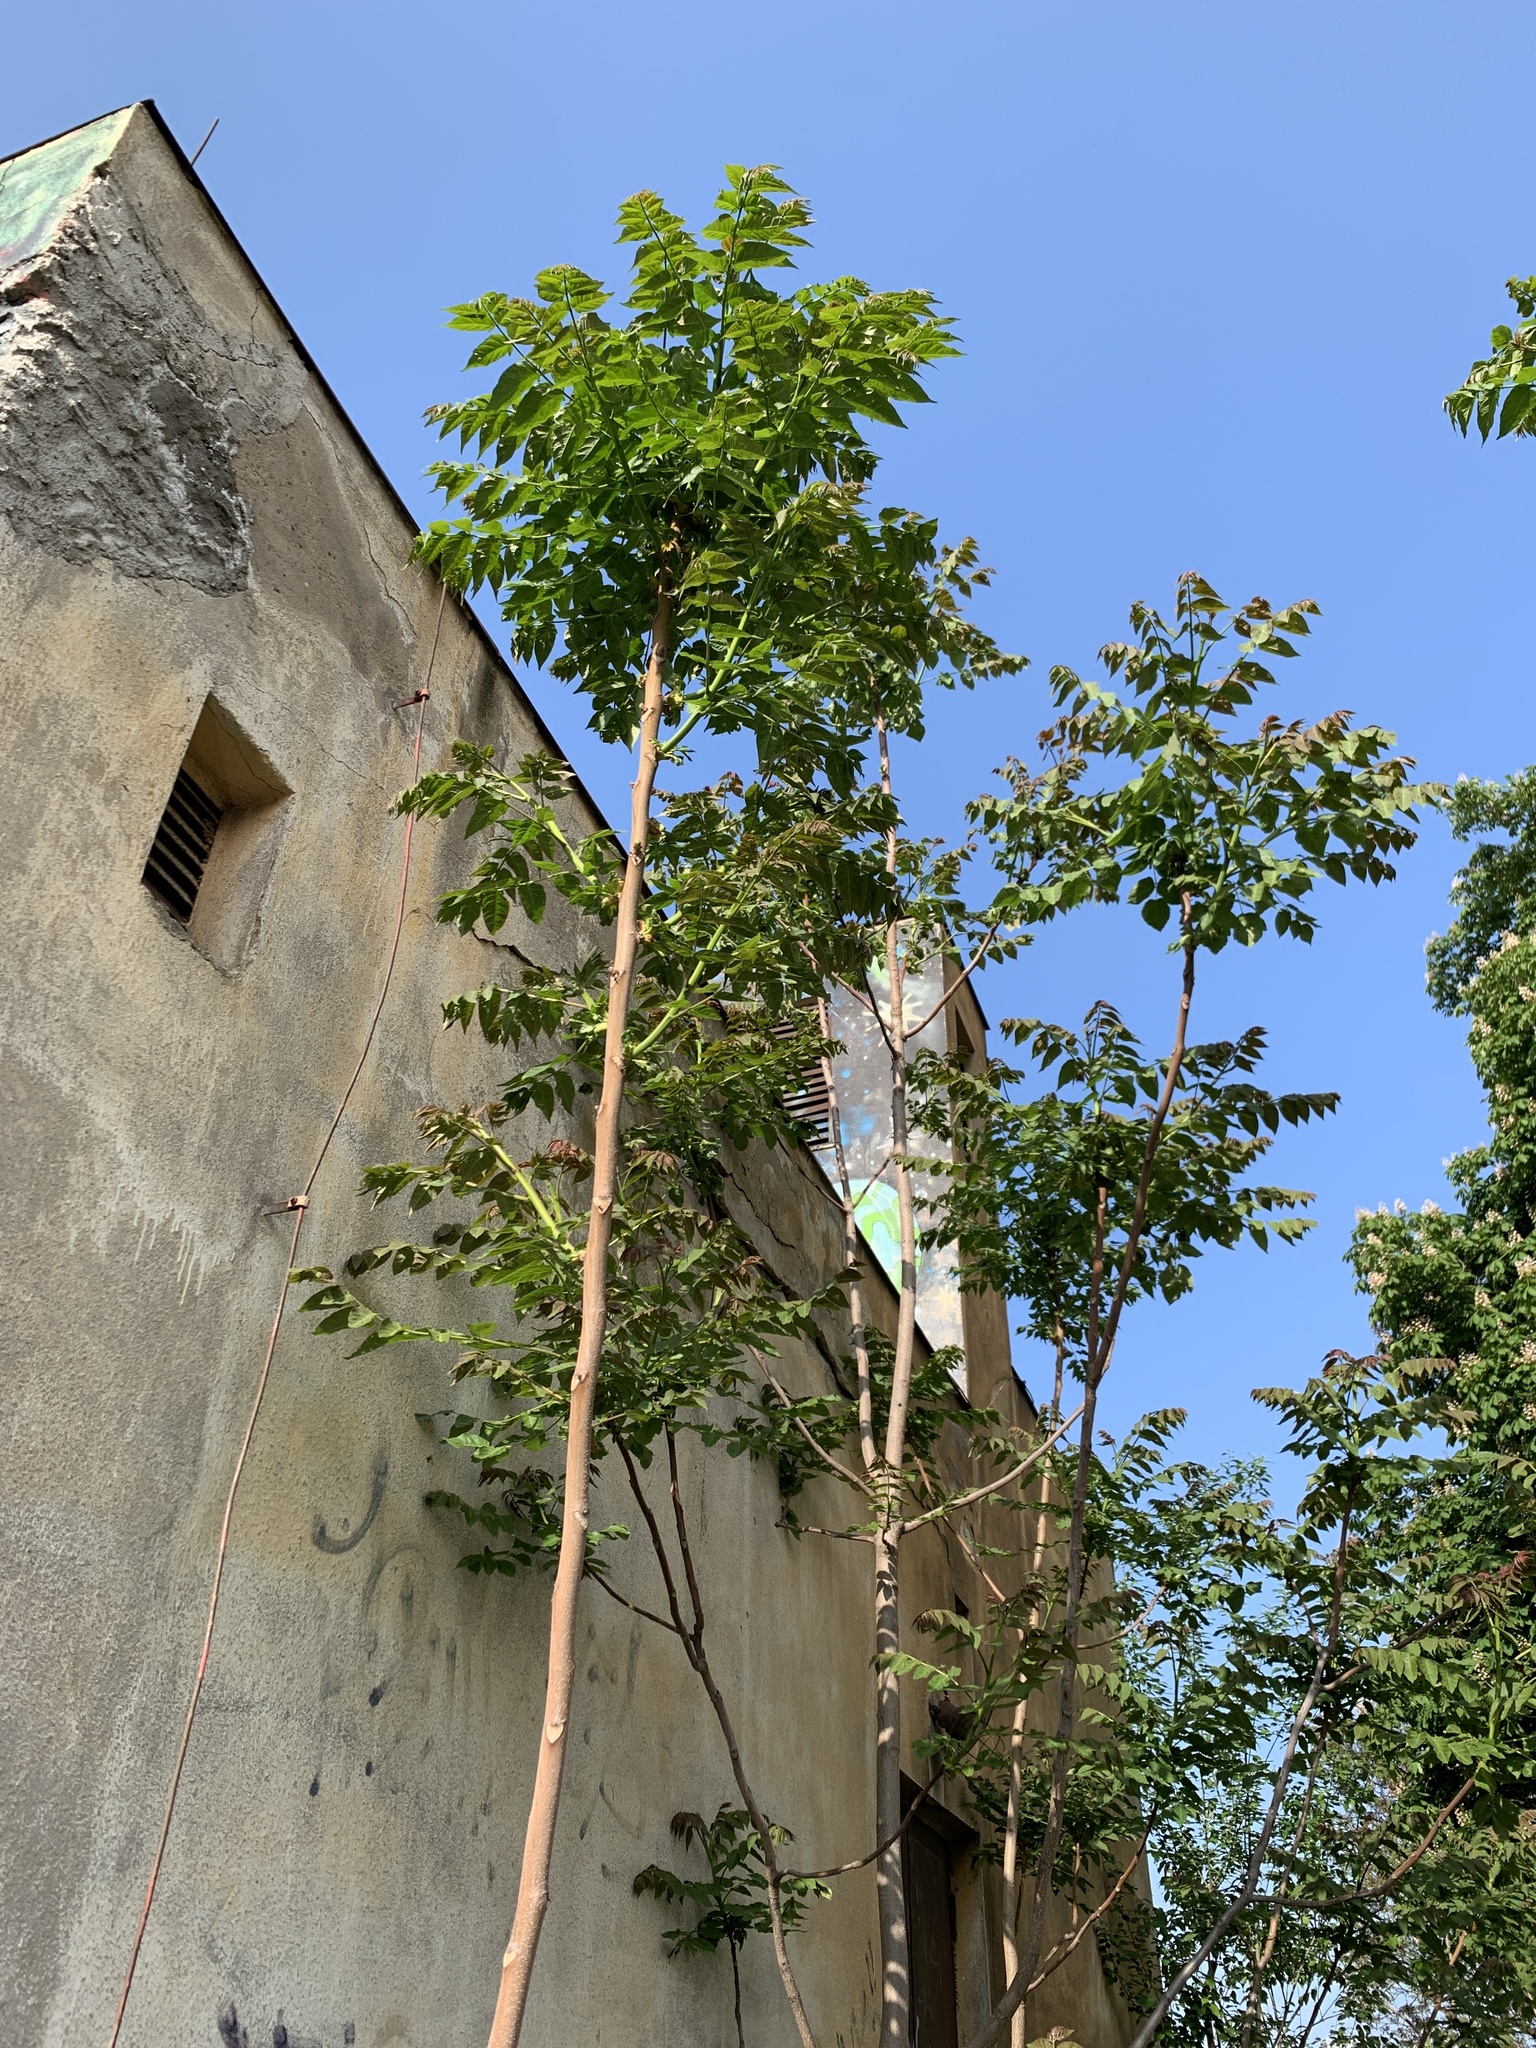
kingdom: Plantae
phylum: Tracheophyta
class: Magnoliopsida
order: Sapindales
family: Simaroubaceae
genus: Ailanthus
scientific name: Ailanthus altissima
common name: Tree-of-heaven
